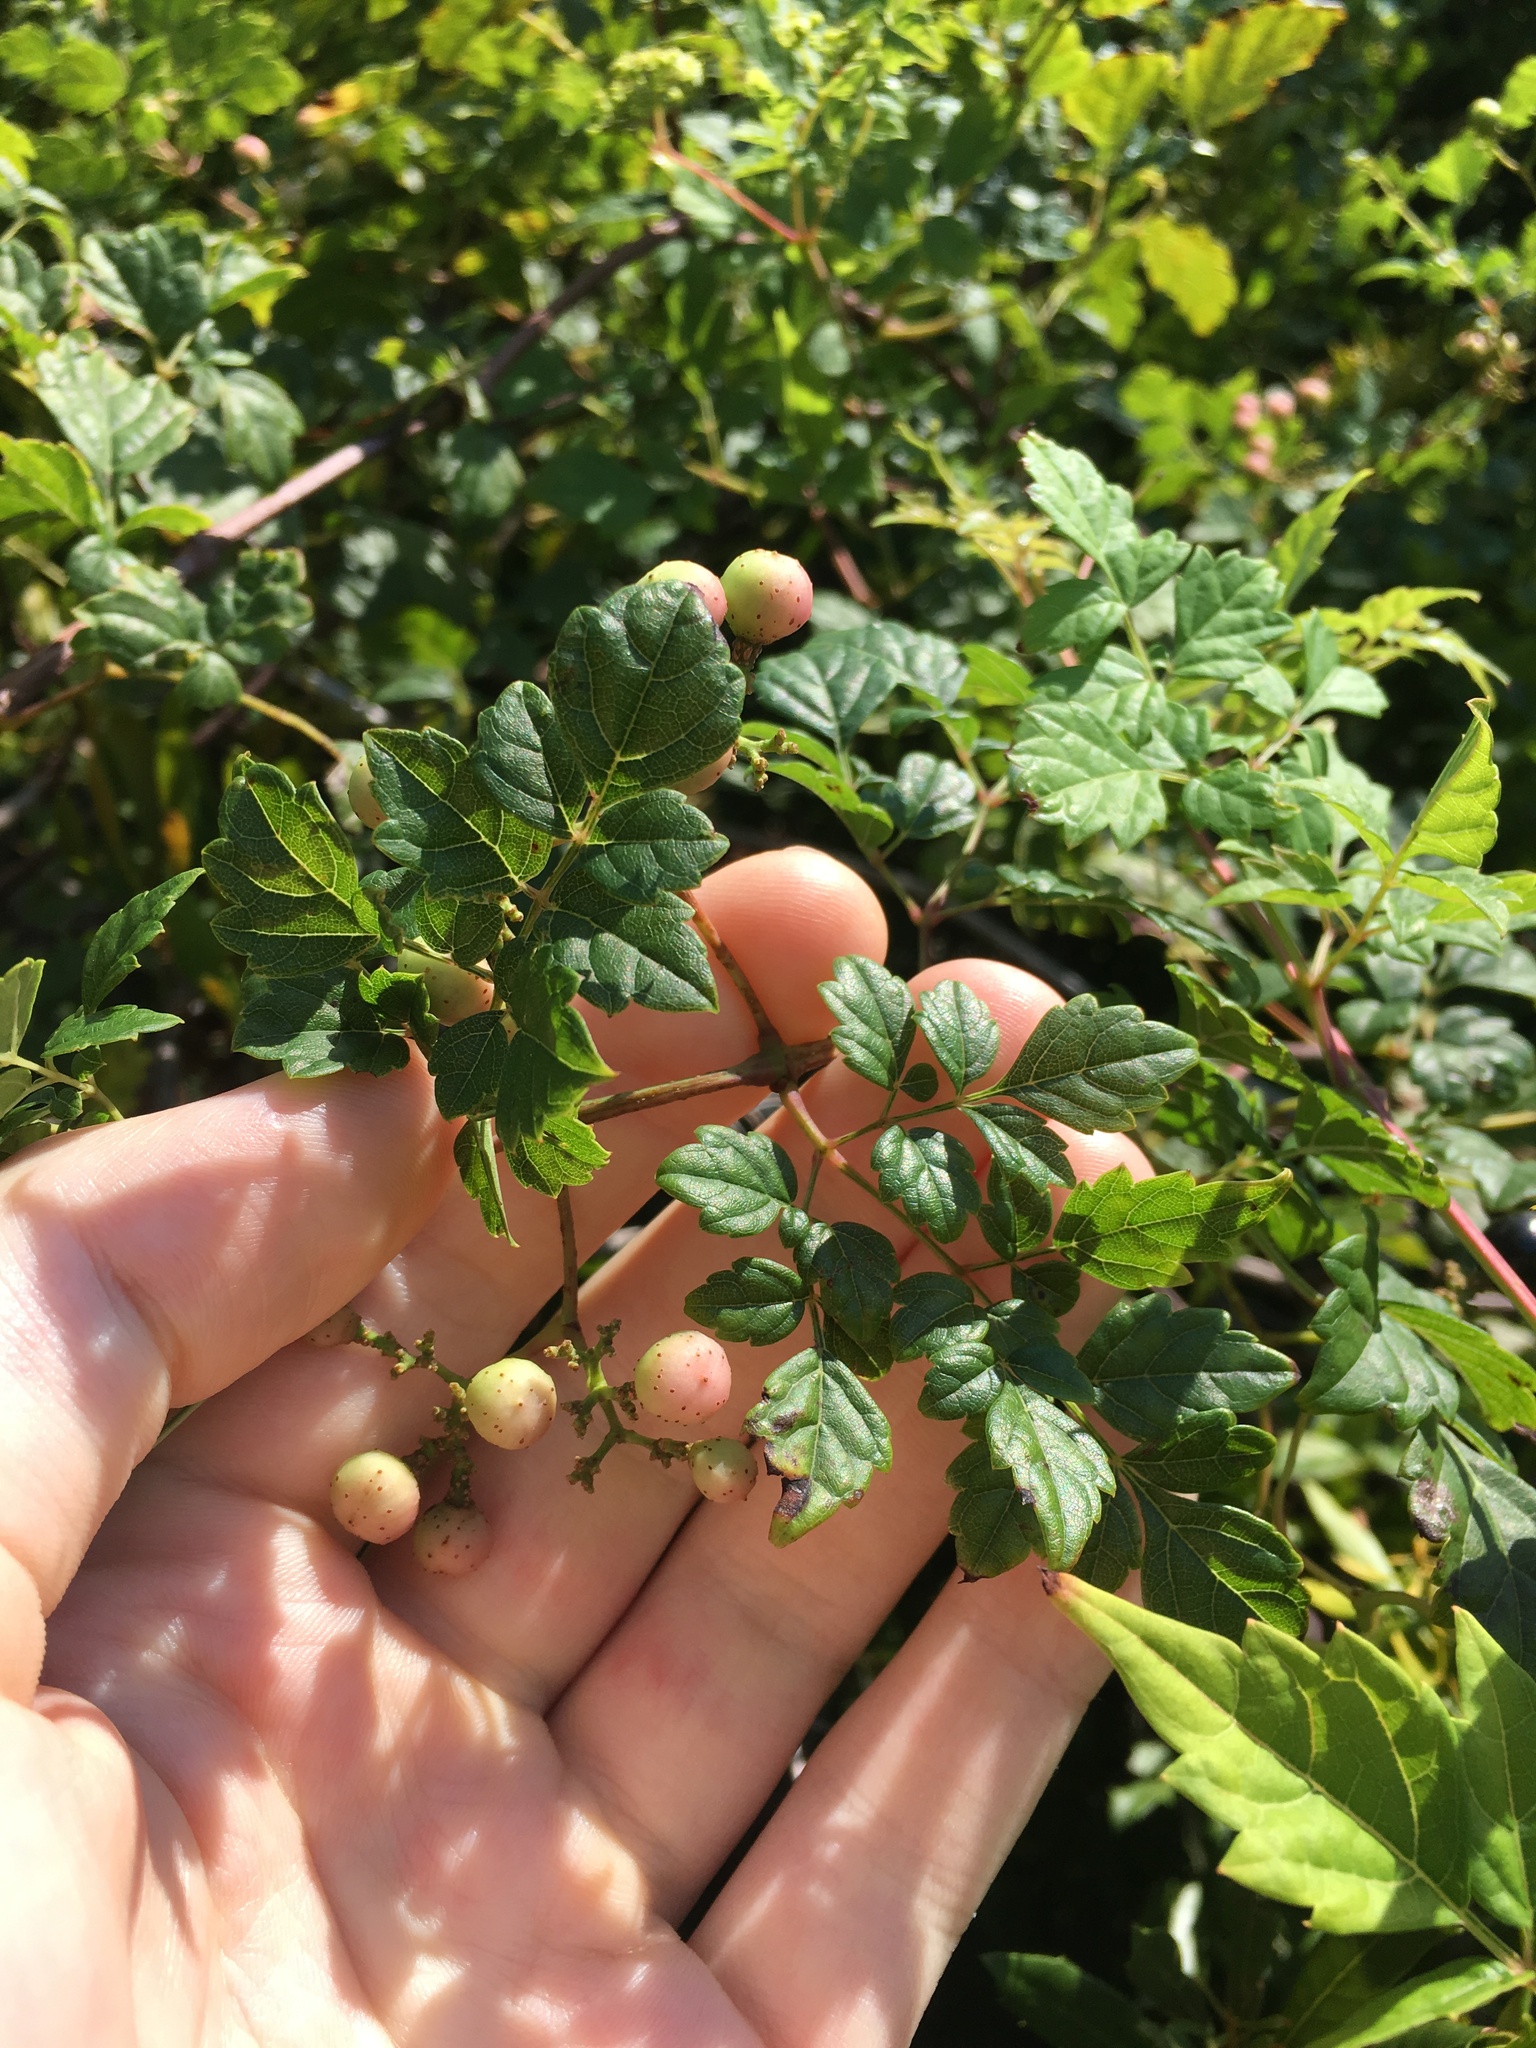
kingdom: Plantae
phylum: Tracheophyta
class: Magnoliopsida
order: Vitales
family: Vitaceae
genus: Nekemias
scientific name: Nekemias arborea
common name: Peppervine
